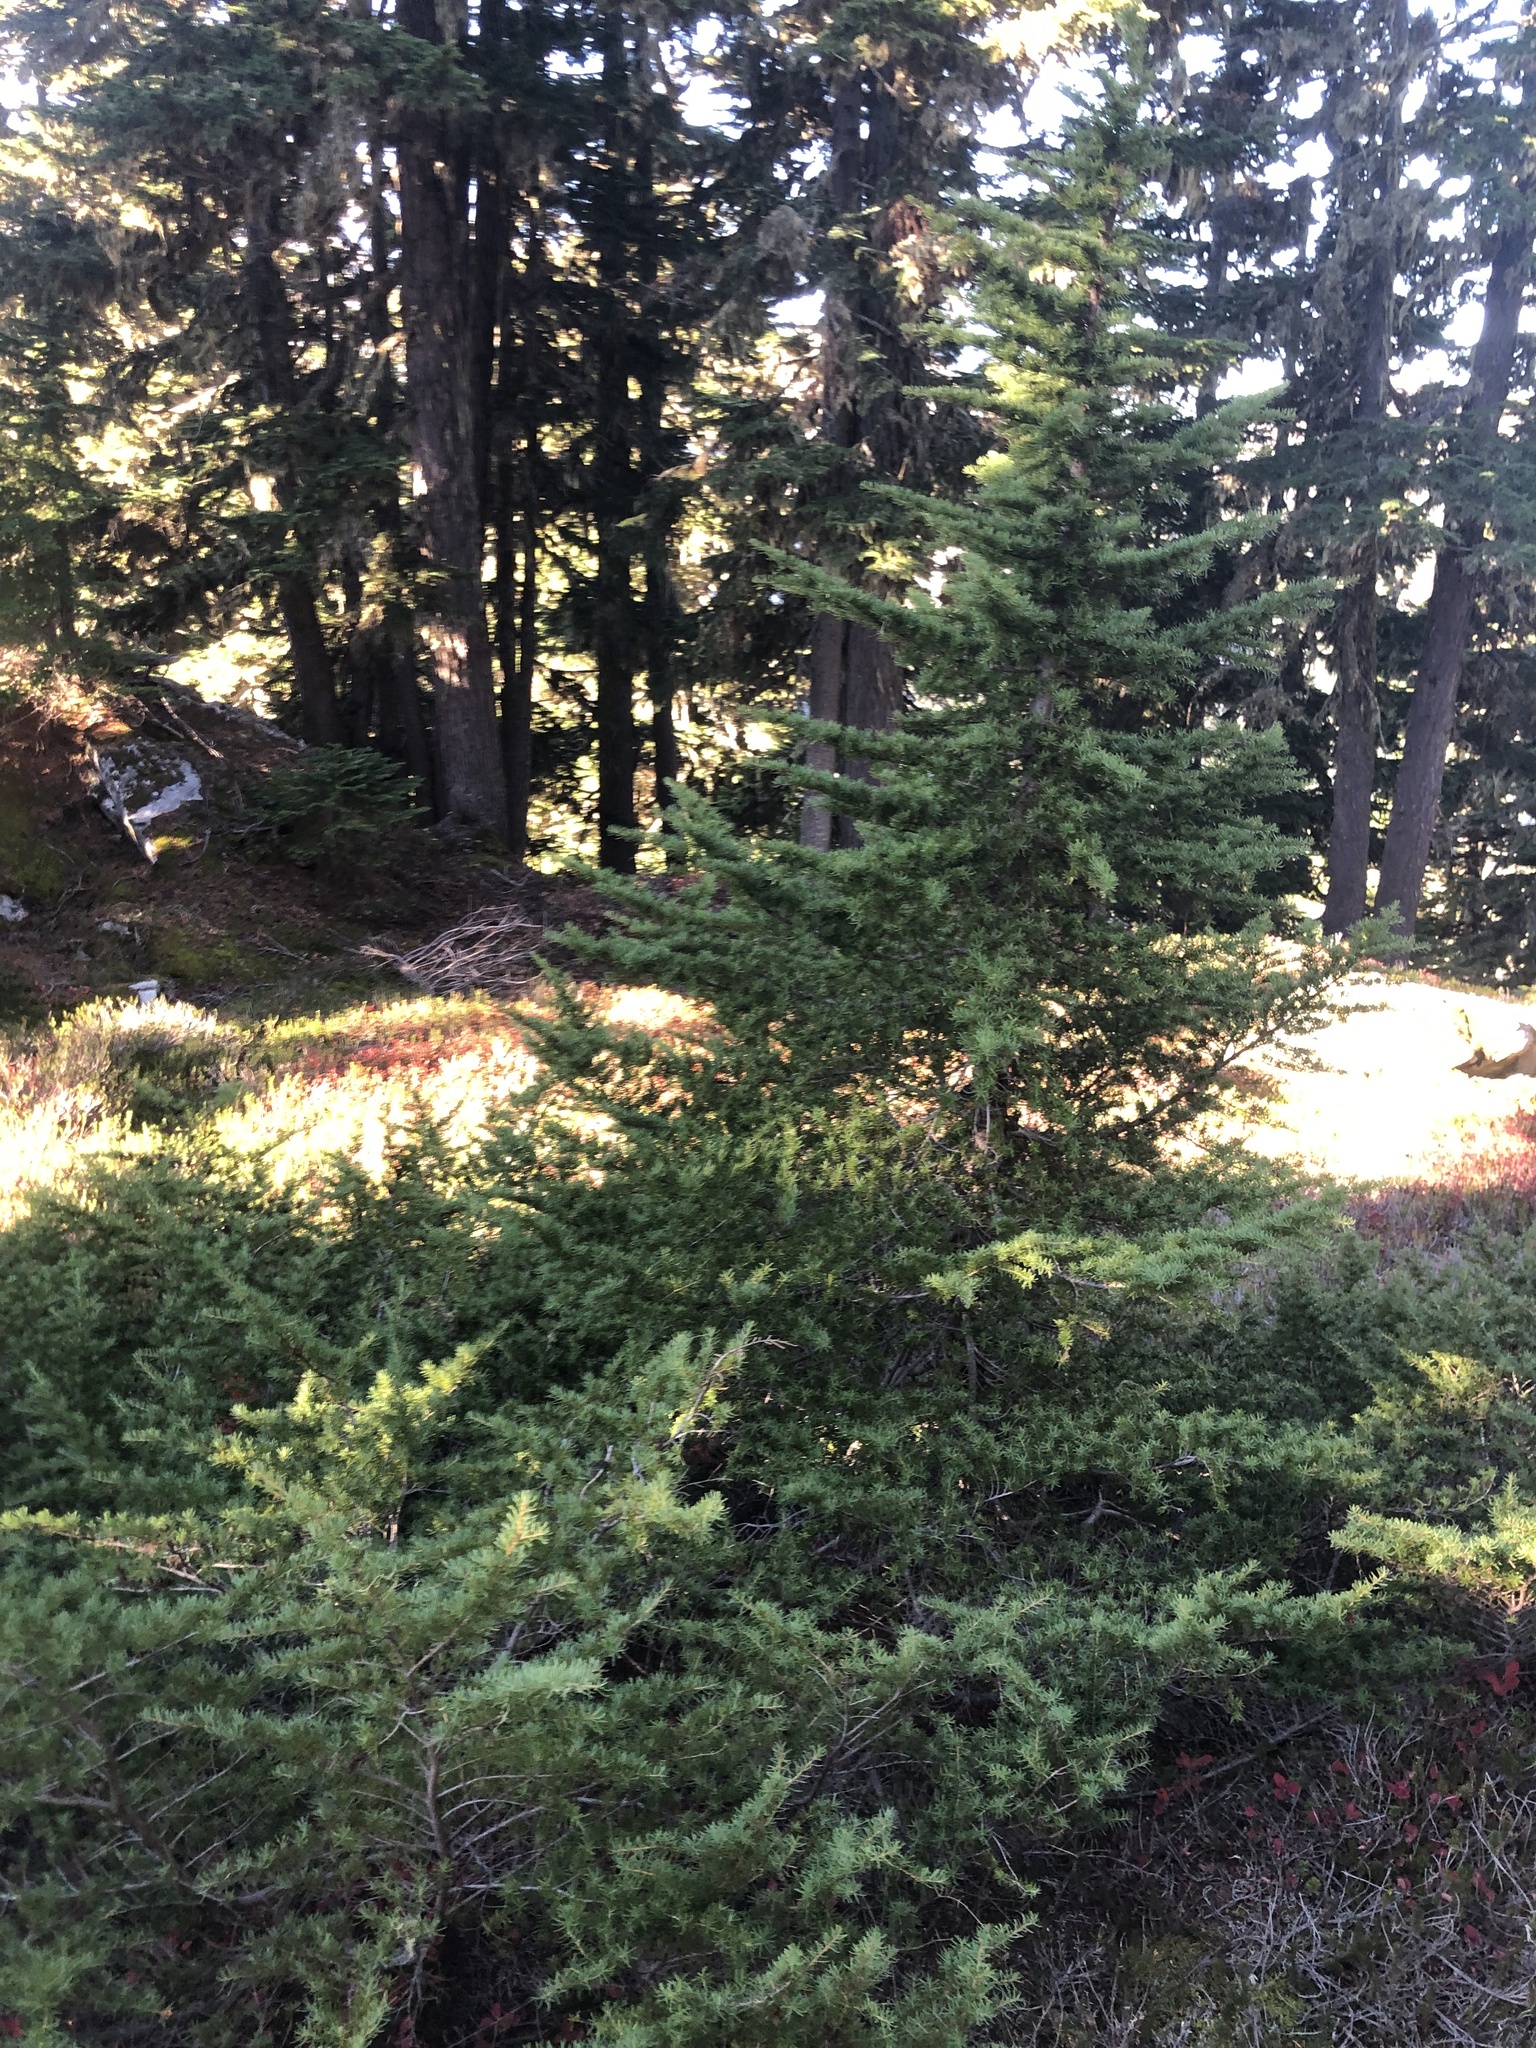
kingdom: Plantae
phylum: Tracheophyta
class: Pinopsida
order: Pinales
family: Pinaceae
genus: Tsuga
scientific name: Tsuga mertensiana
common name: Mountain hemlock
